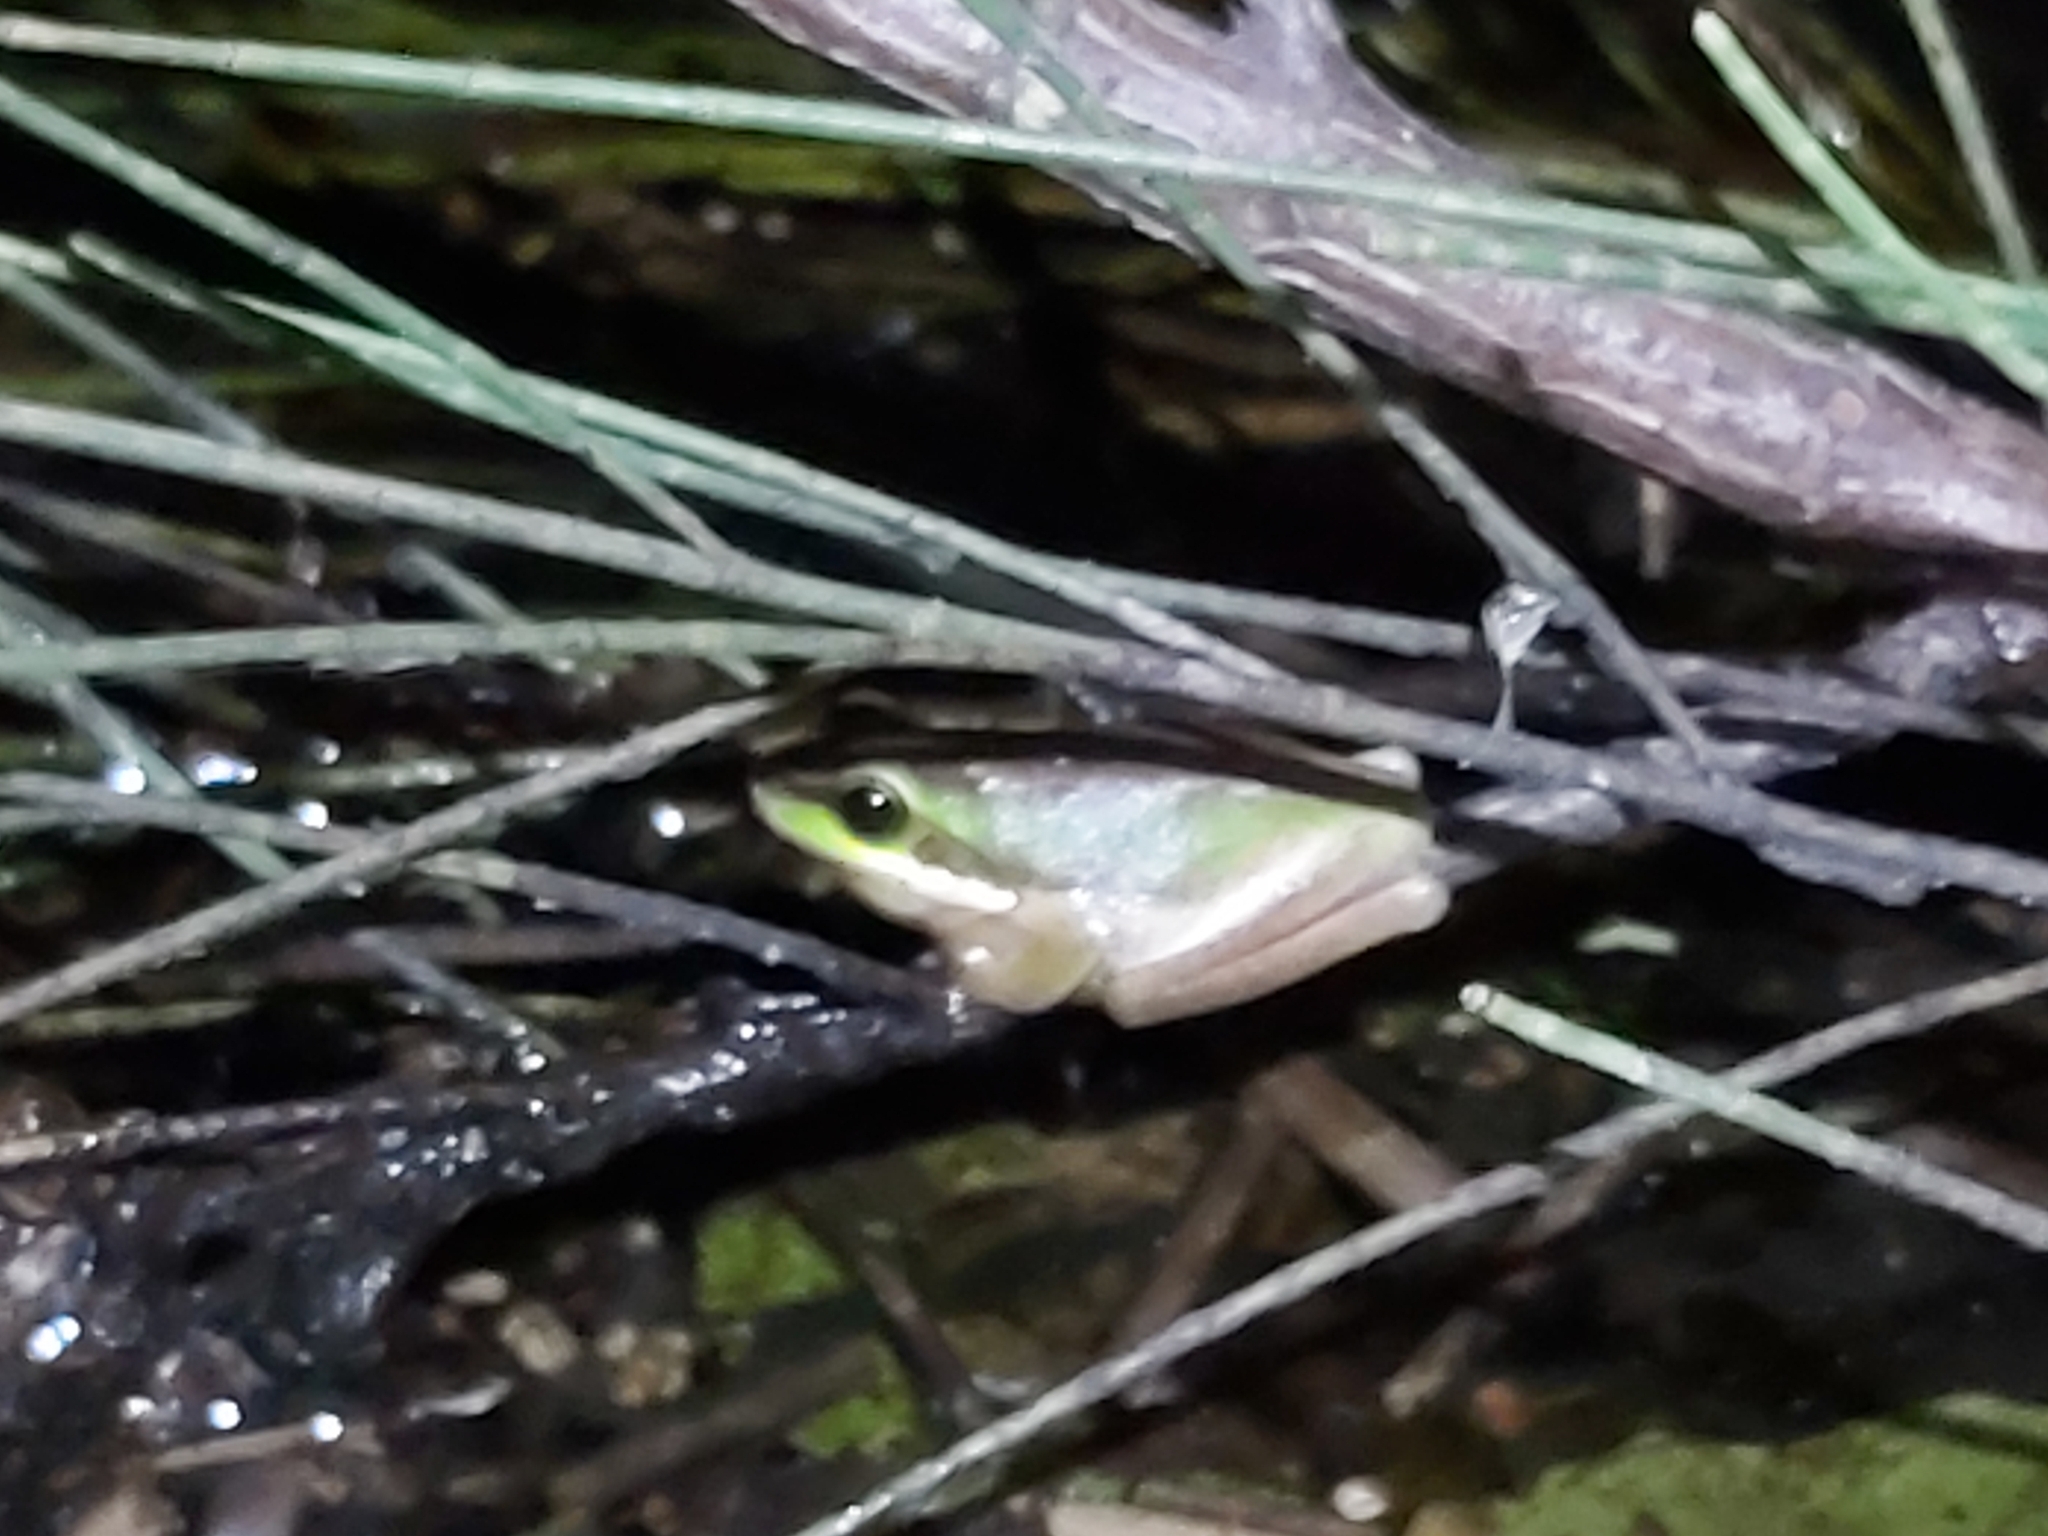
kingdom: Animalia
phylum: Chordata
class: Amphibia
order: Anura
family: Pelodryadidae
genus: Litoria
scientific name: Litoria fallax
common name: Eastern dwarf treefrog
